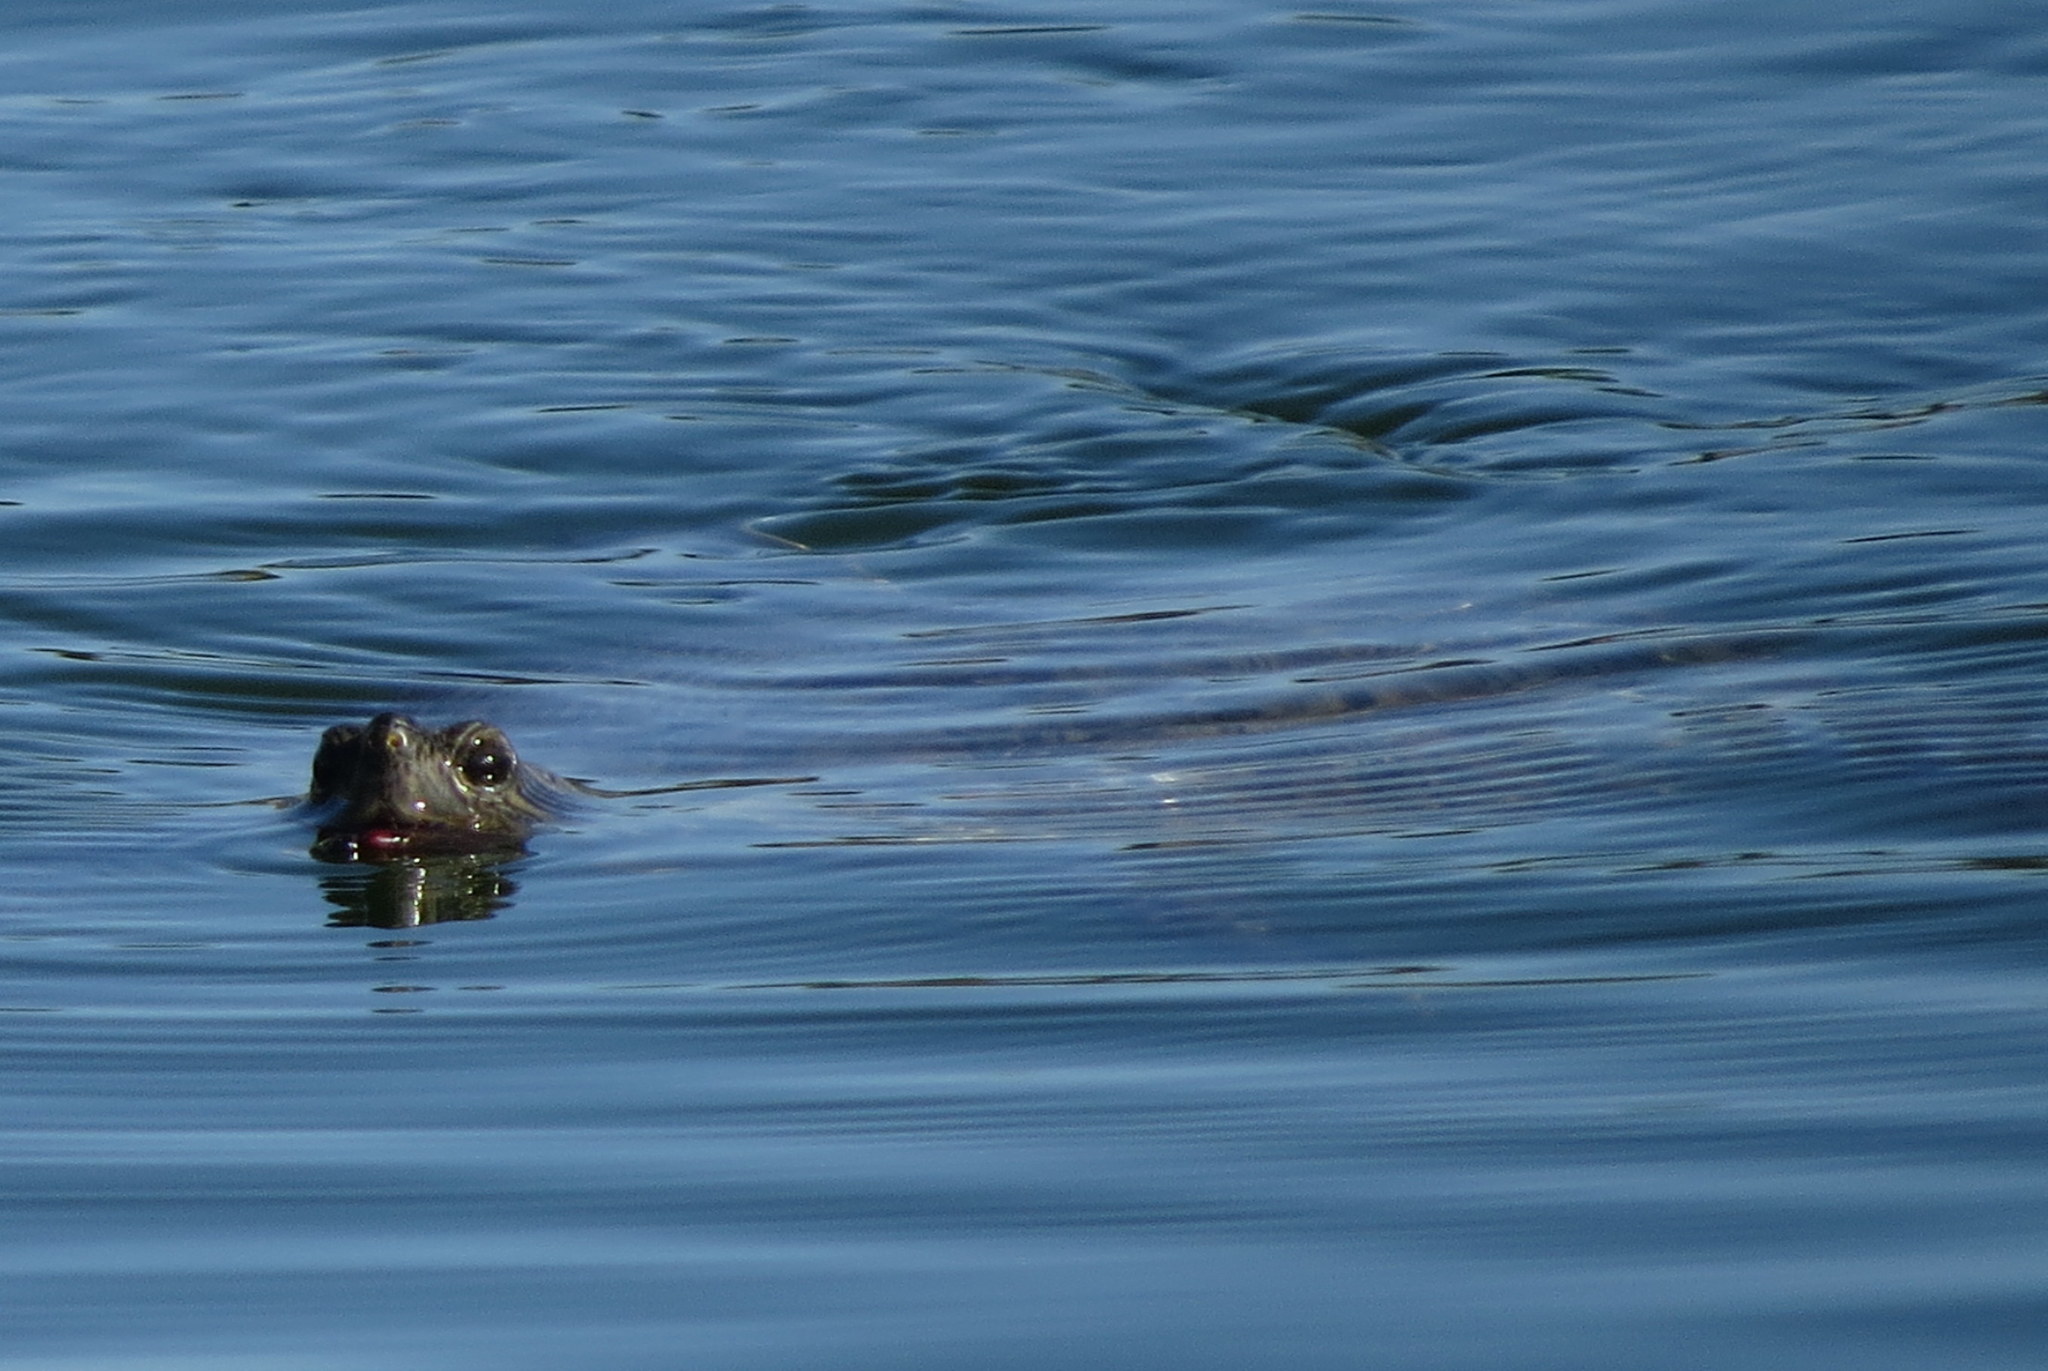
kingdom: Animalia
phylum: Chordata
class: Testudines
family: Emydidae
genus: Trachemys
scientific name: Trachemys scripta
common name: Slider
